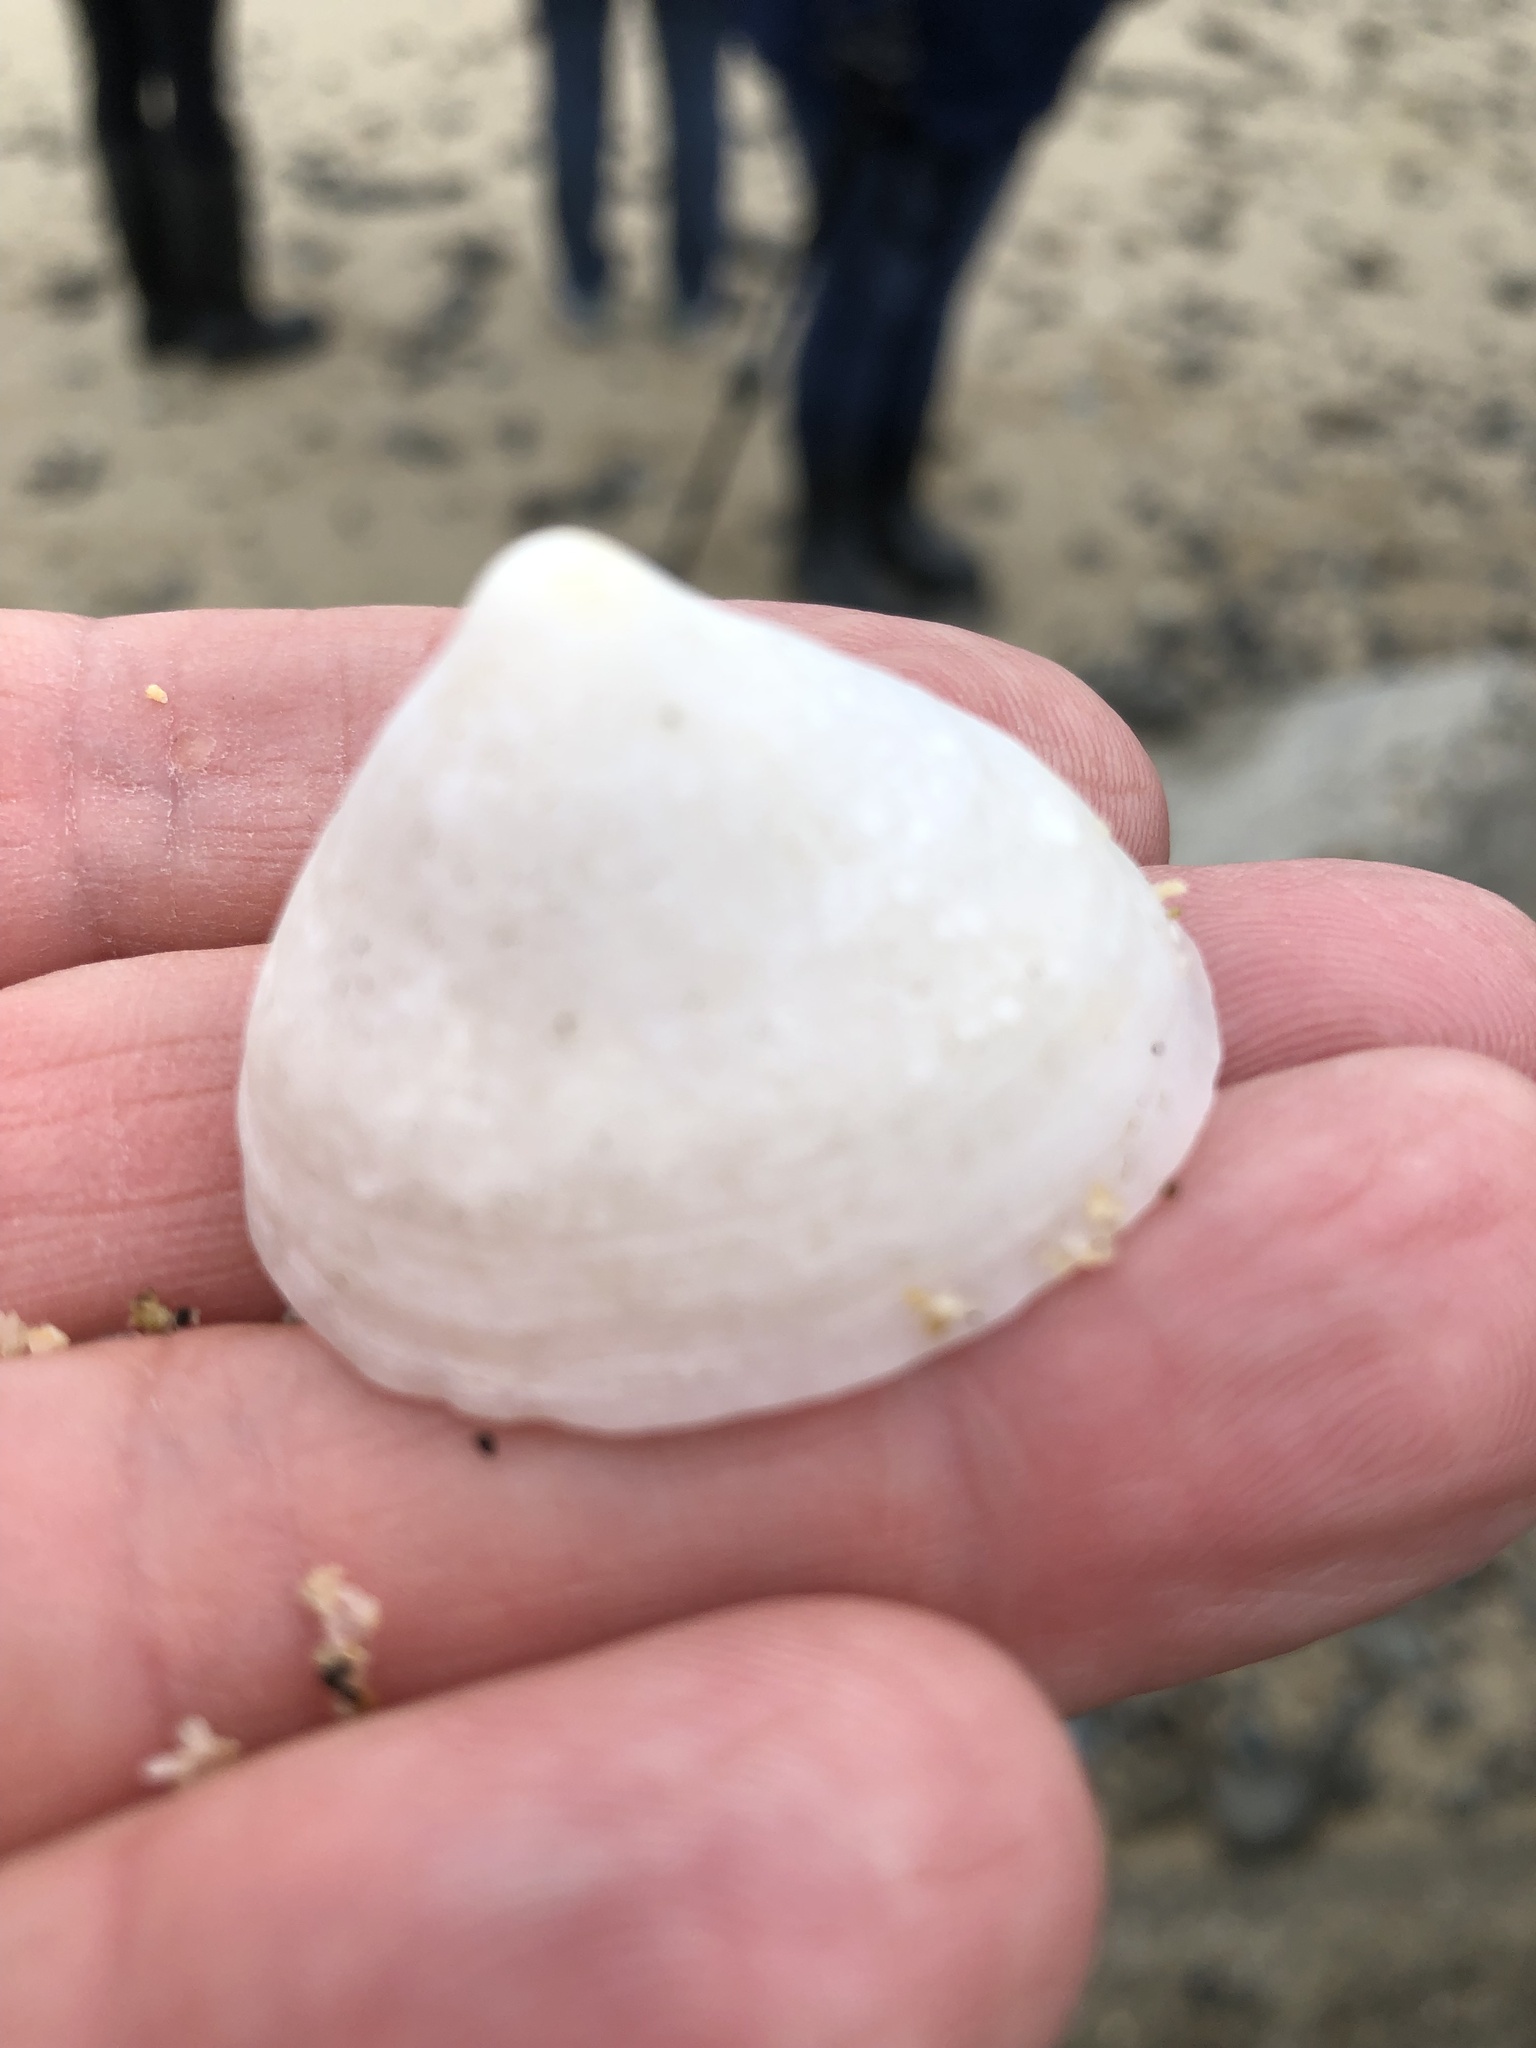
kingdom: Animalia
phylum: Mollusca
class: Gastropoda
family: Acmaeidae
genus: Acmaea
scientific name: Acmaea mitra
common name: Pacific white cap limpet
